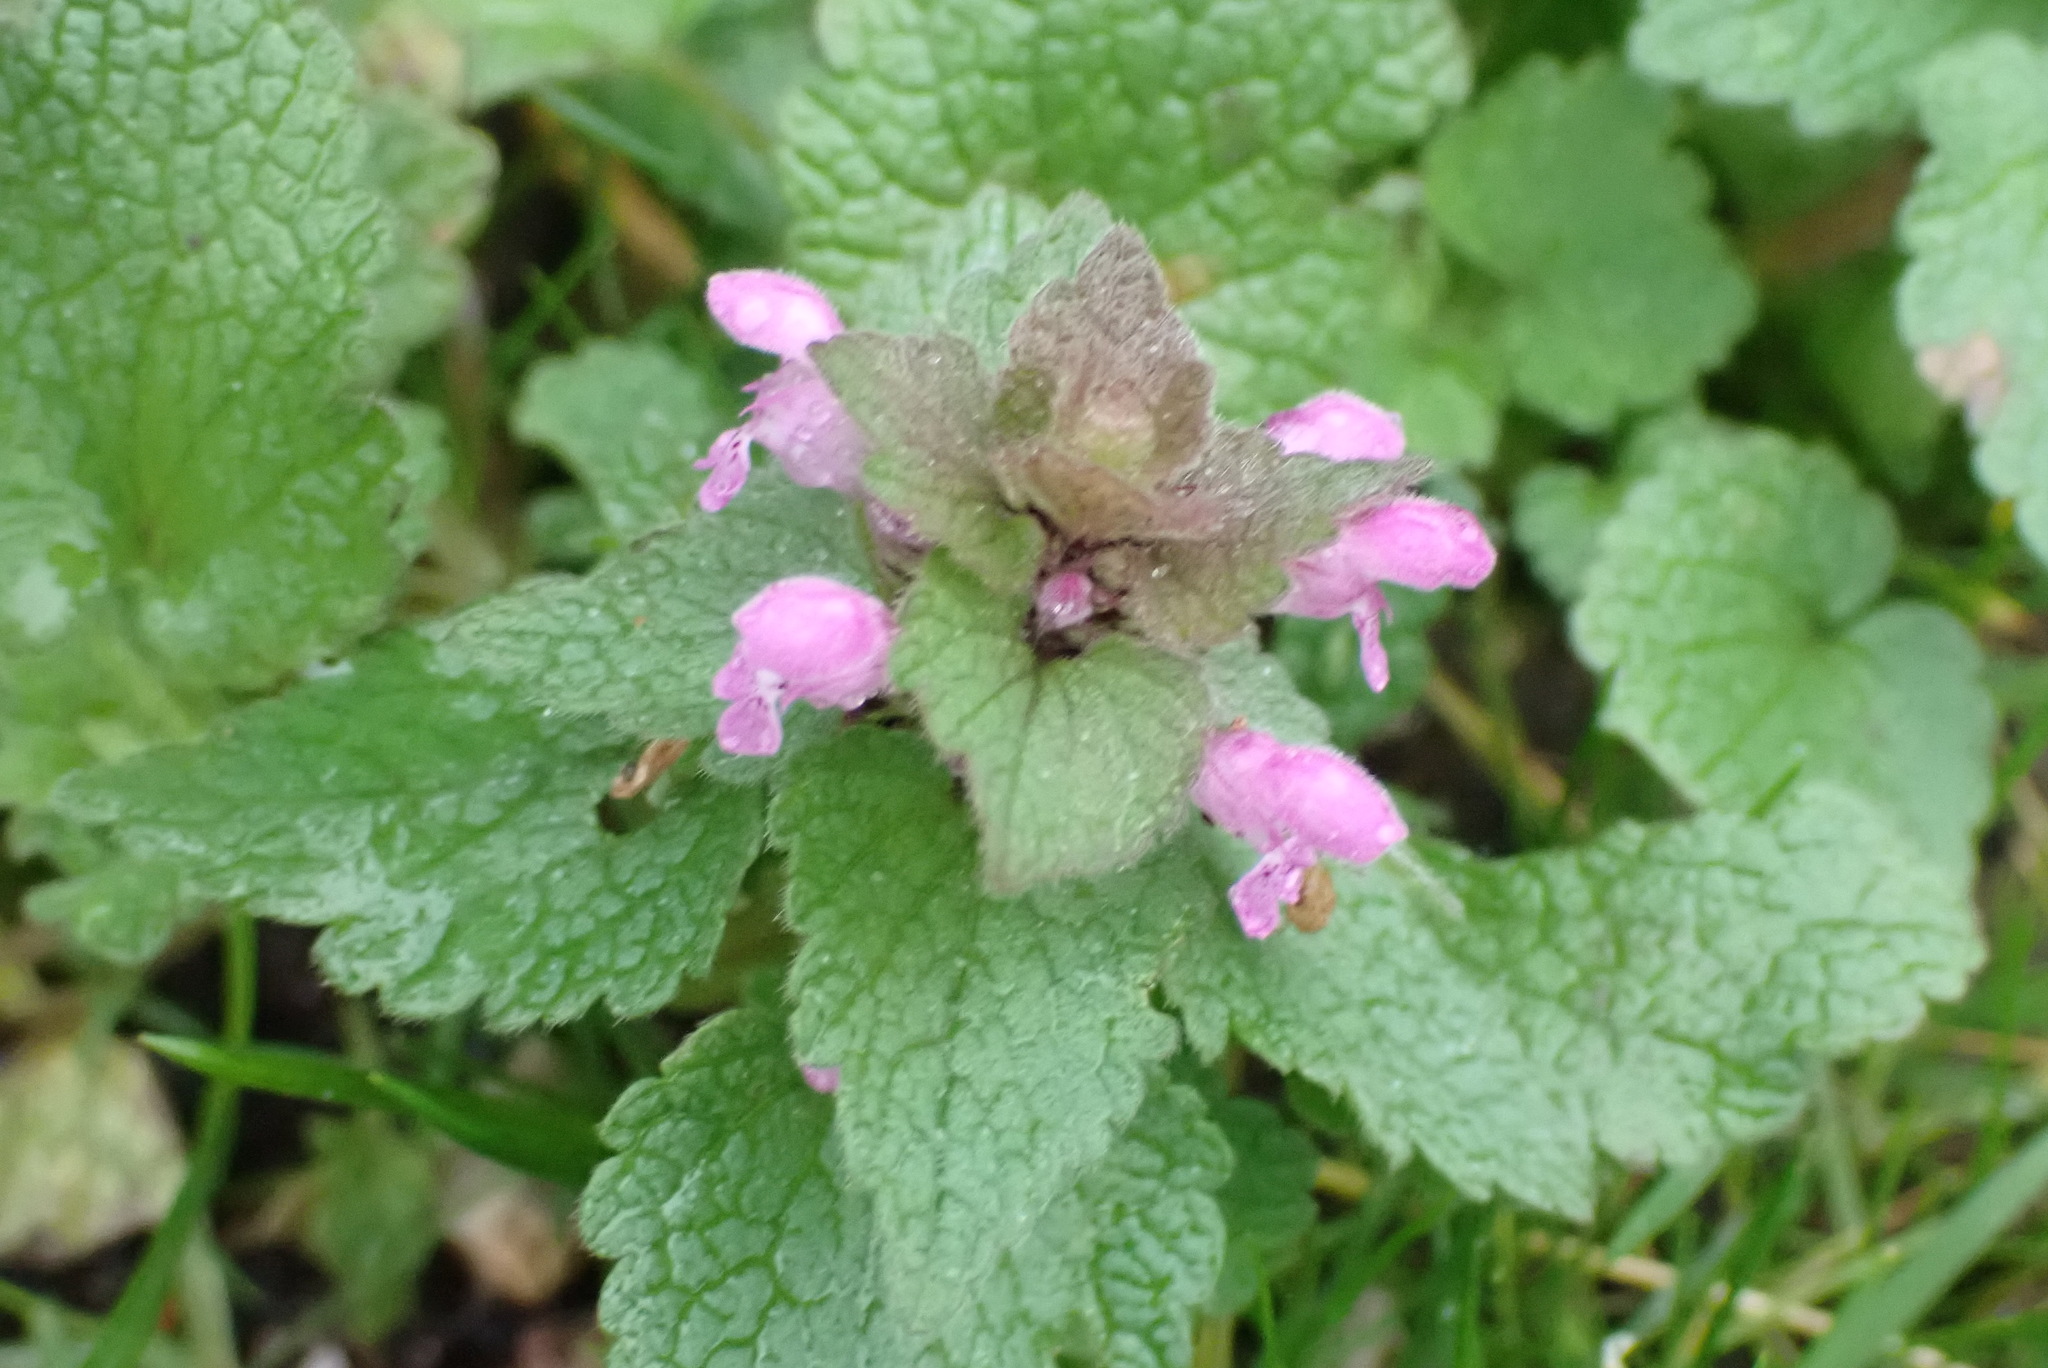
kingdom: Plantae
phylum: Tracheophyta
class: Magnoliopsida
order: Lamiales
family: Lamiaceae
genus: Lamium
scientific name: Lamium purpureum
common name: Red dead-nettle
